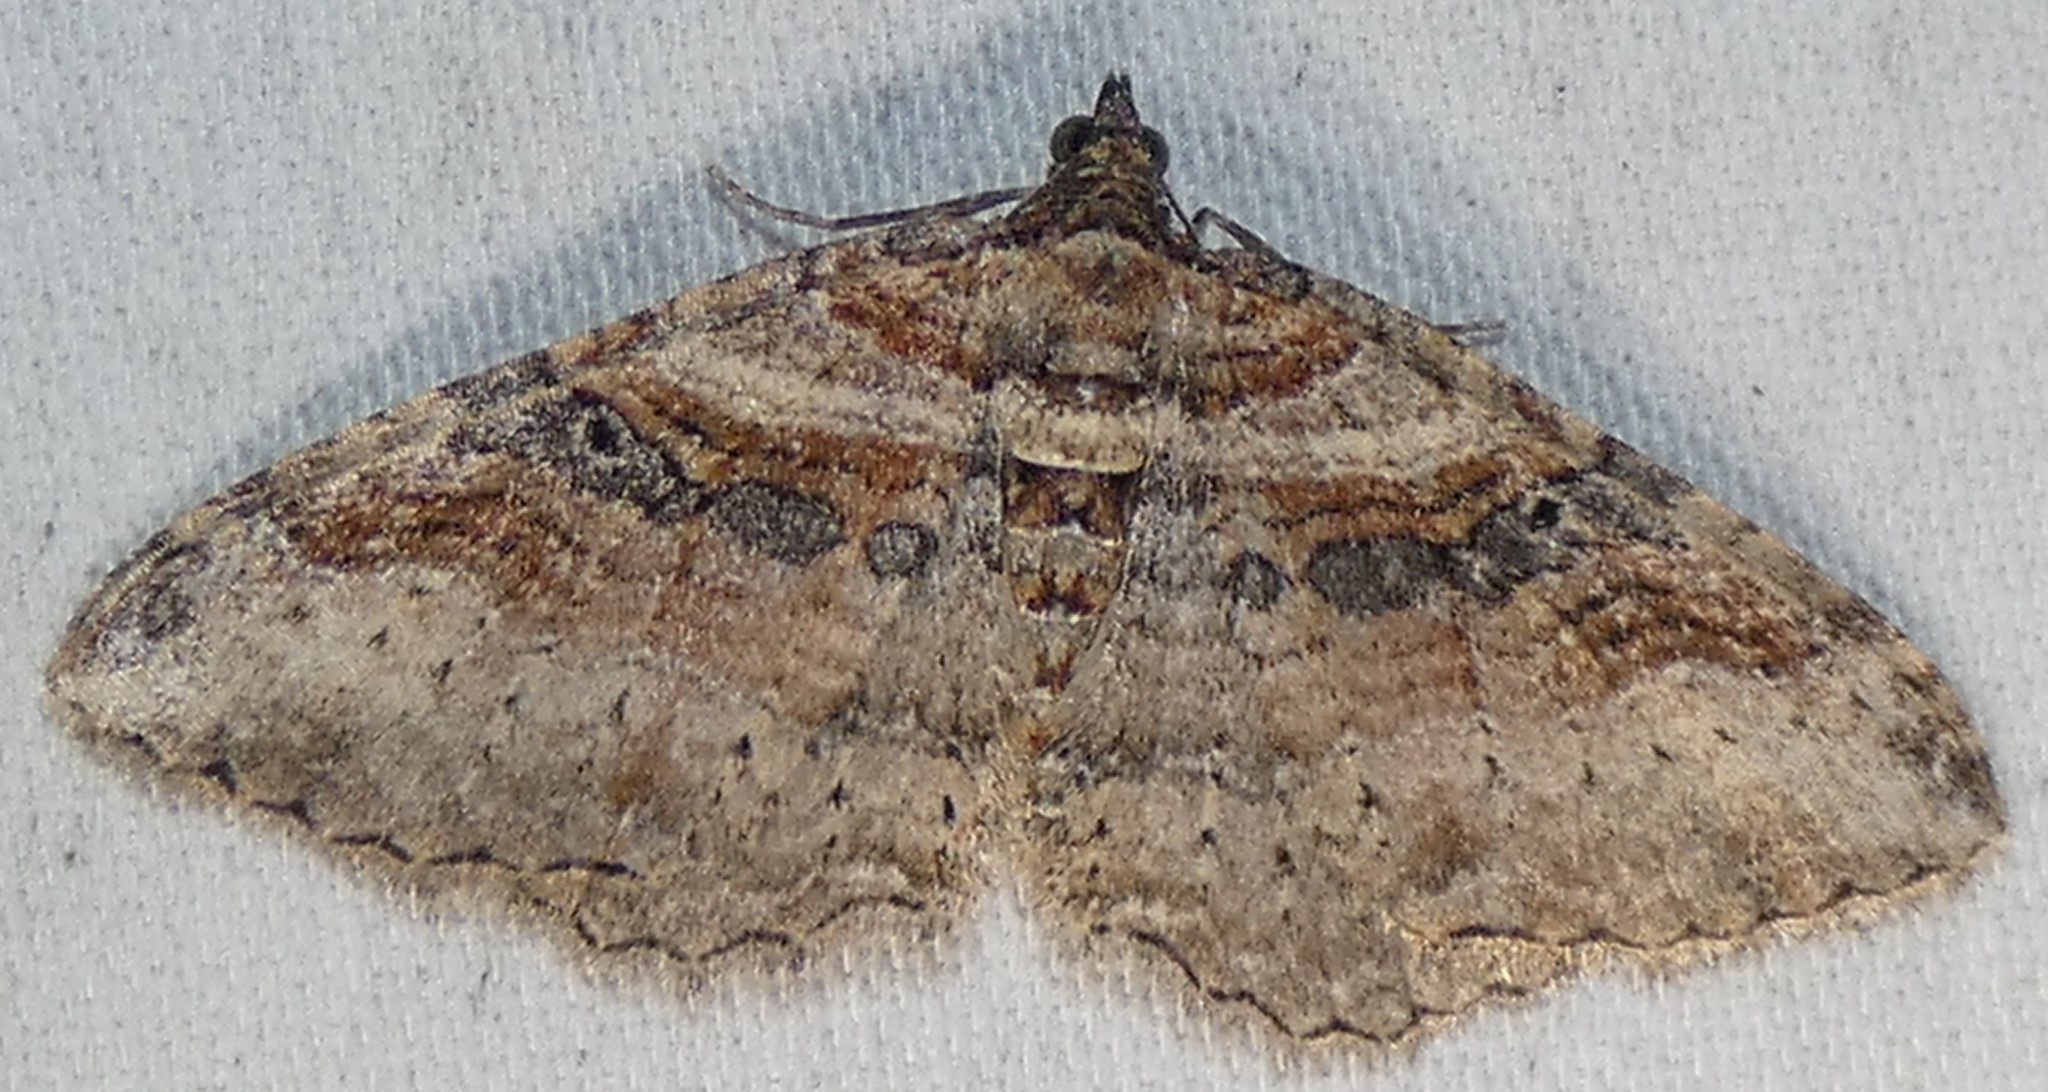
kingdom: Animalia
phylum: Arthropoda
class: Insecta
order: Lepidoptera
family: Geometridae
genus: Costaconvexa
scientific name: Costaconvexa centrostrigaria
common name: Bent-line carpet
